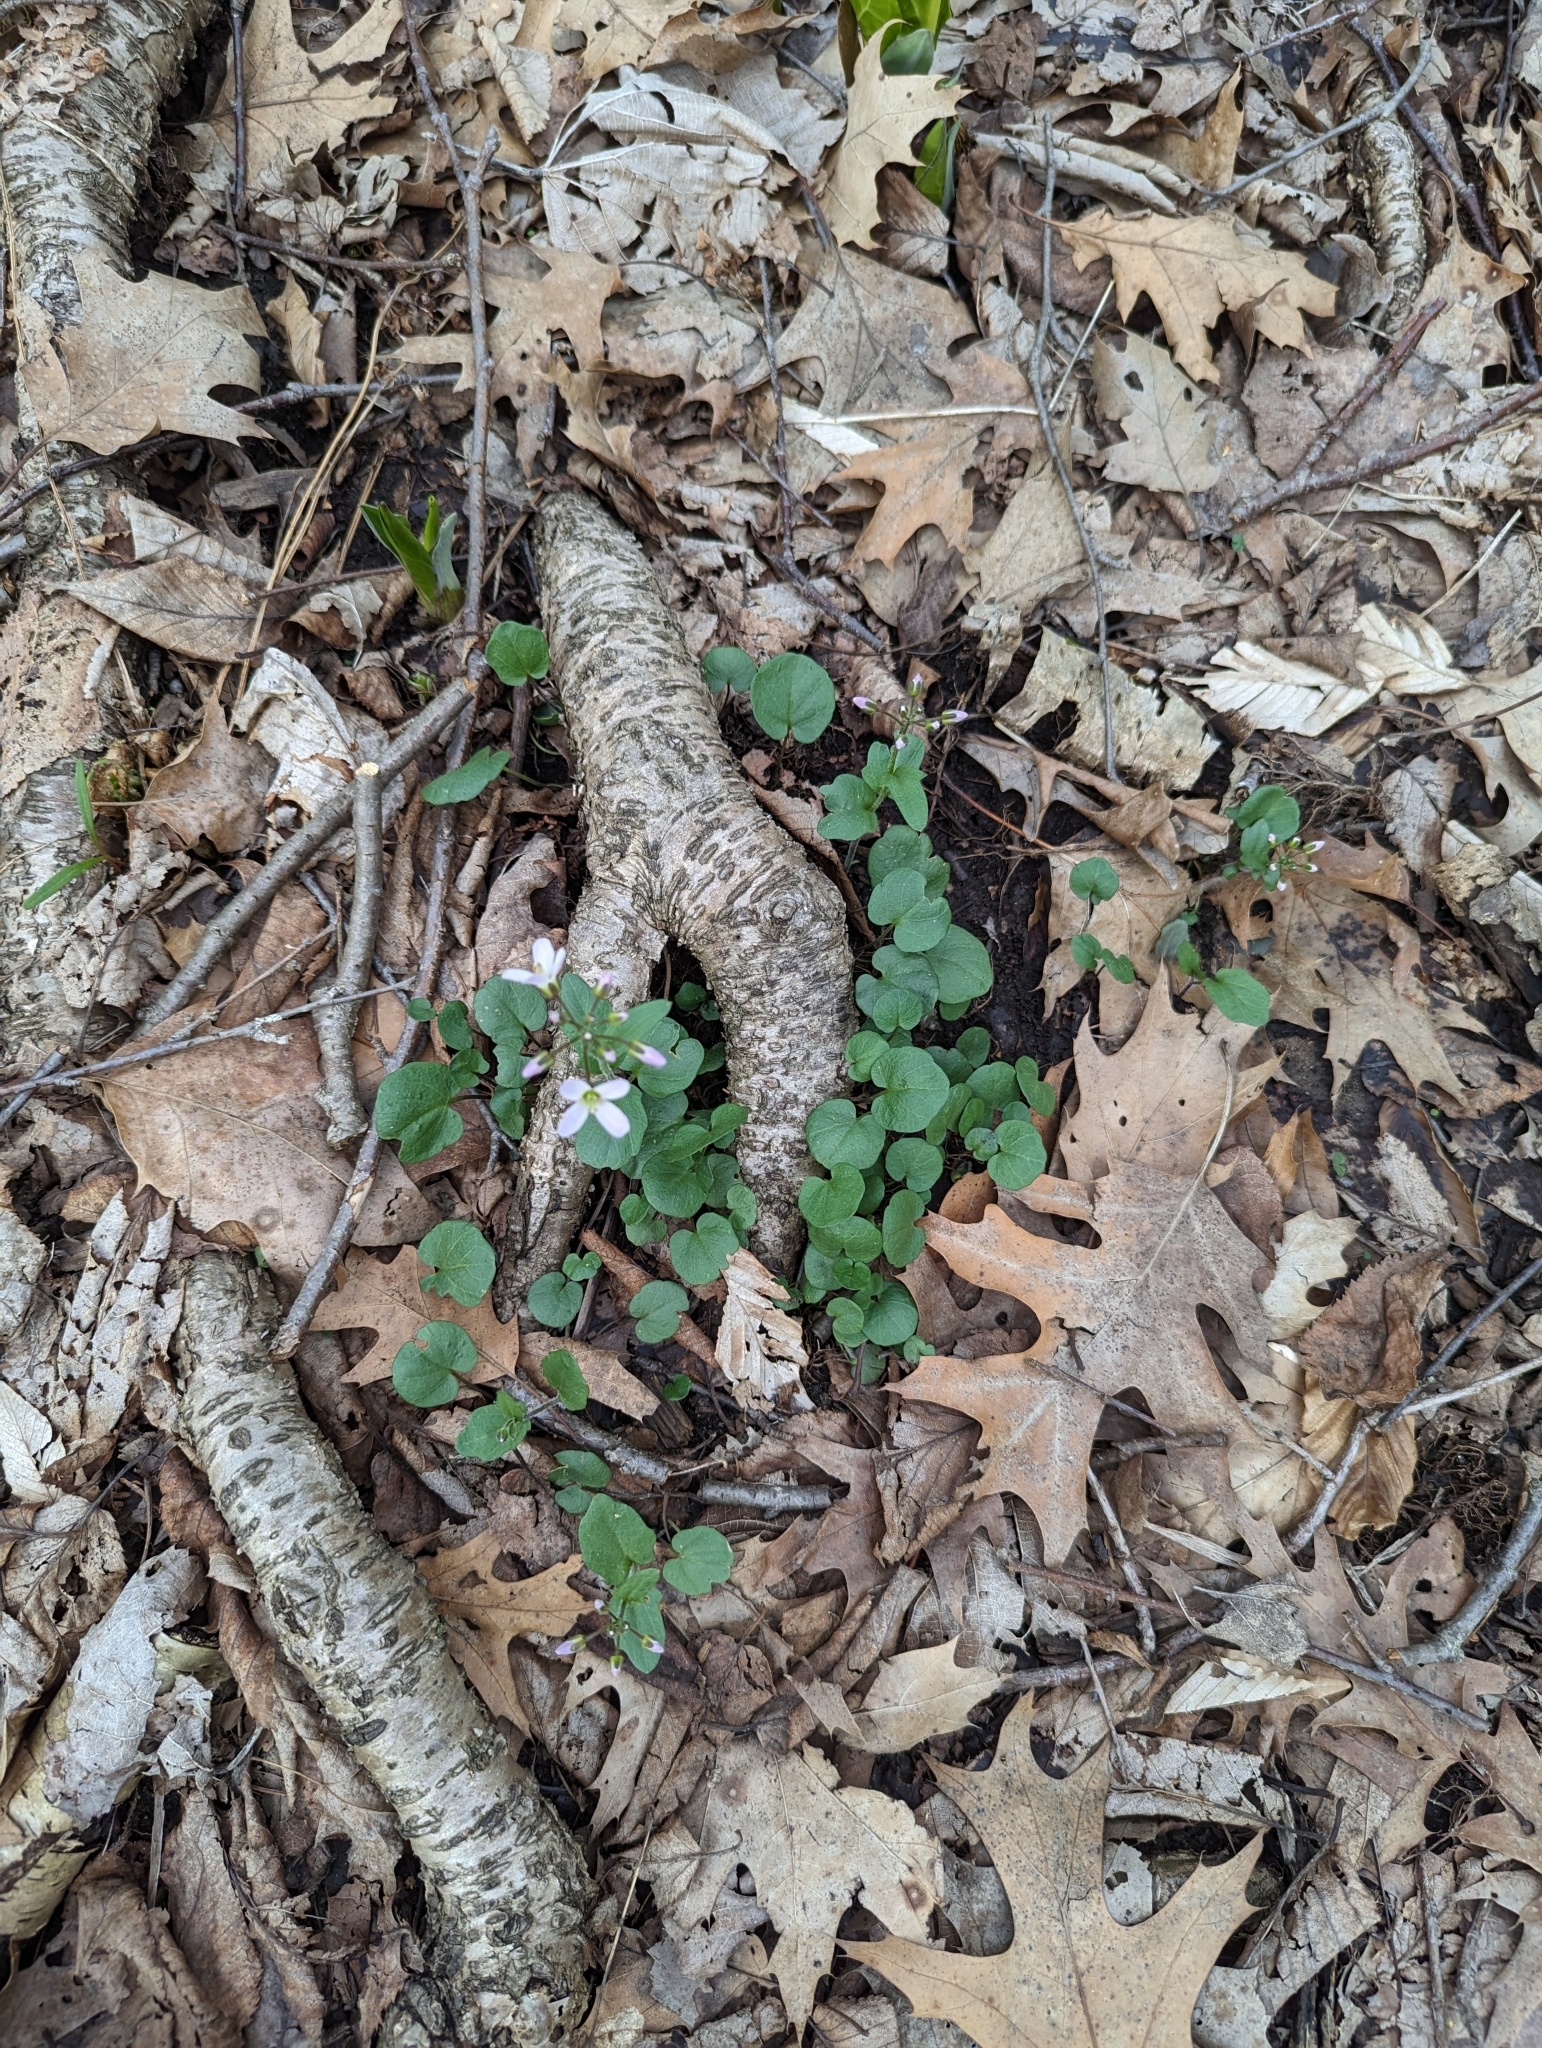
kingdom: Plantae
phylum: Tracheophyta
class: Magnoliopsida
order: Brassicales
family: Brassicaceae
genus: Cardamine
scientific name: Cardamine douglassii
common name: Purple cress
